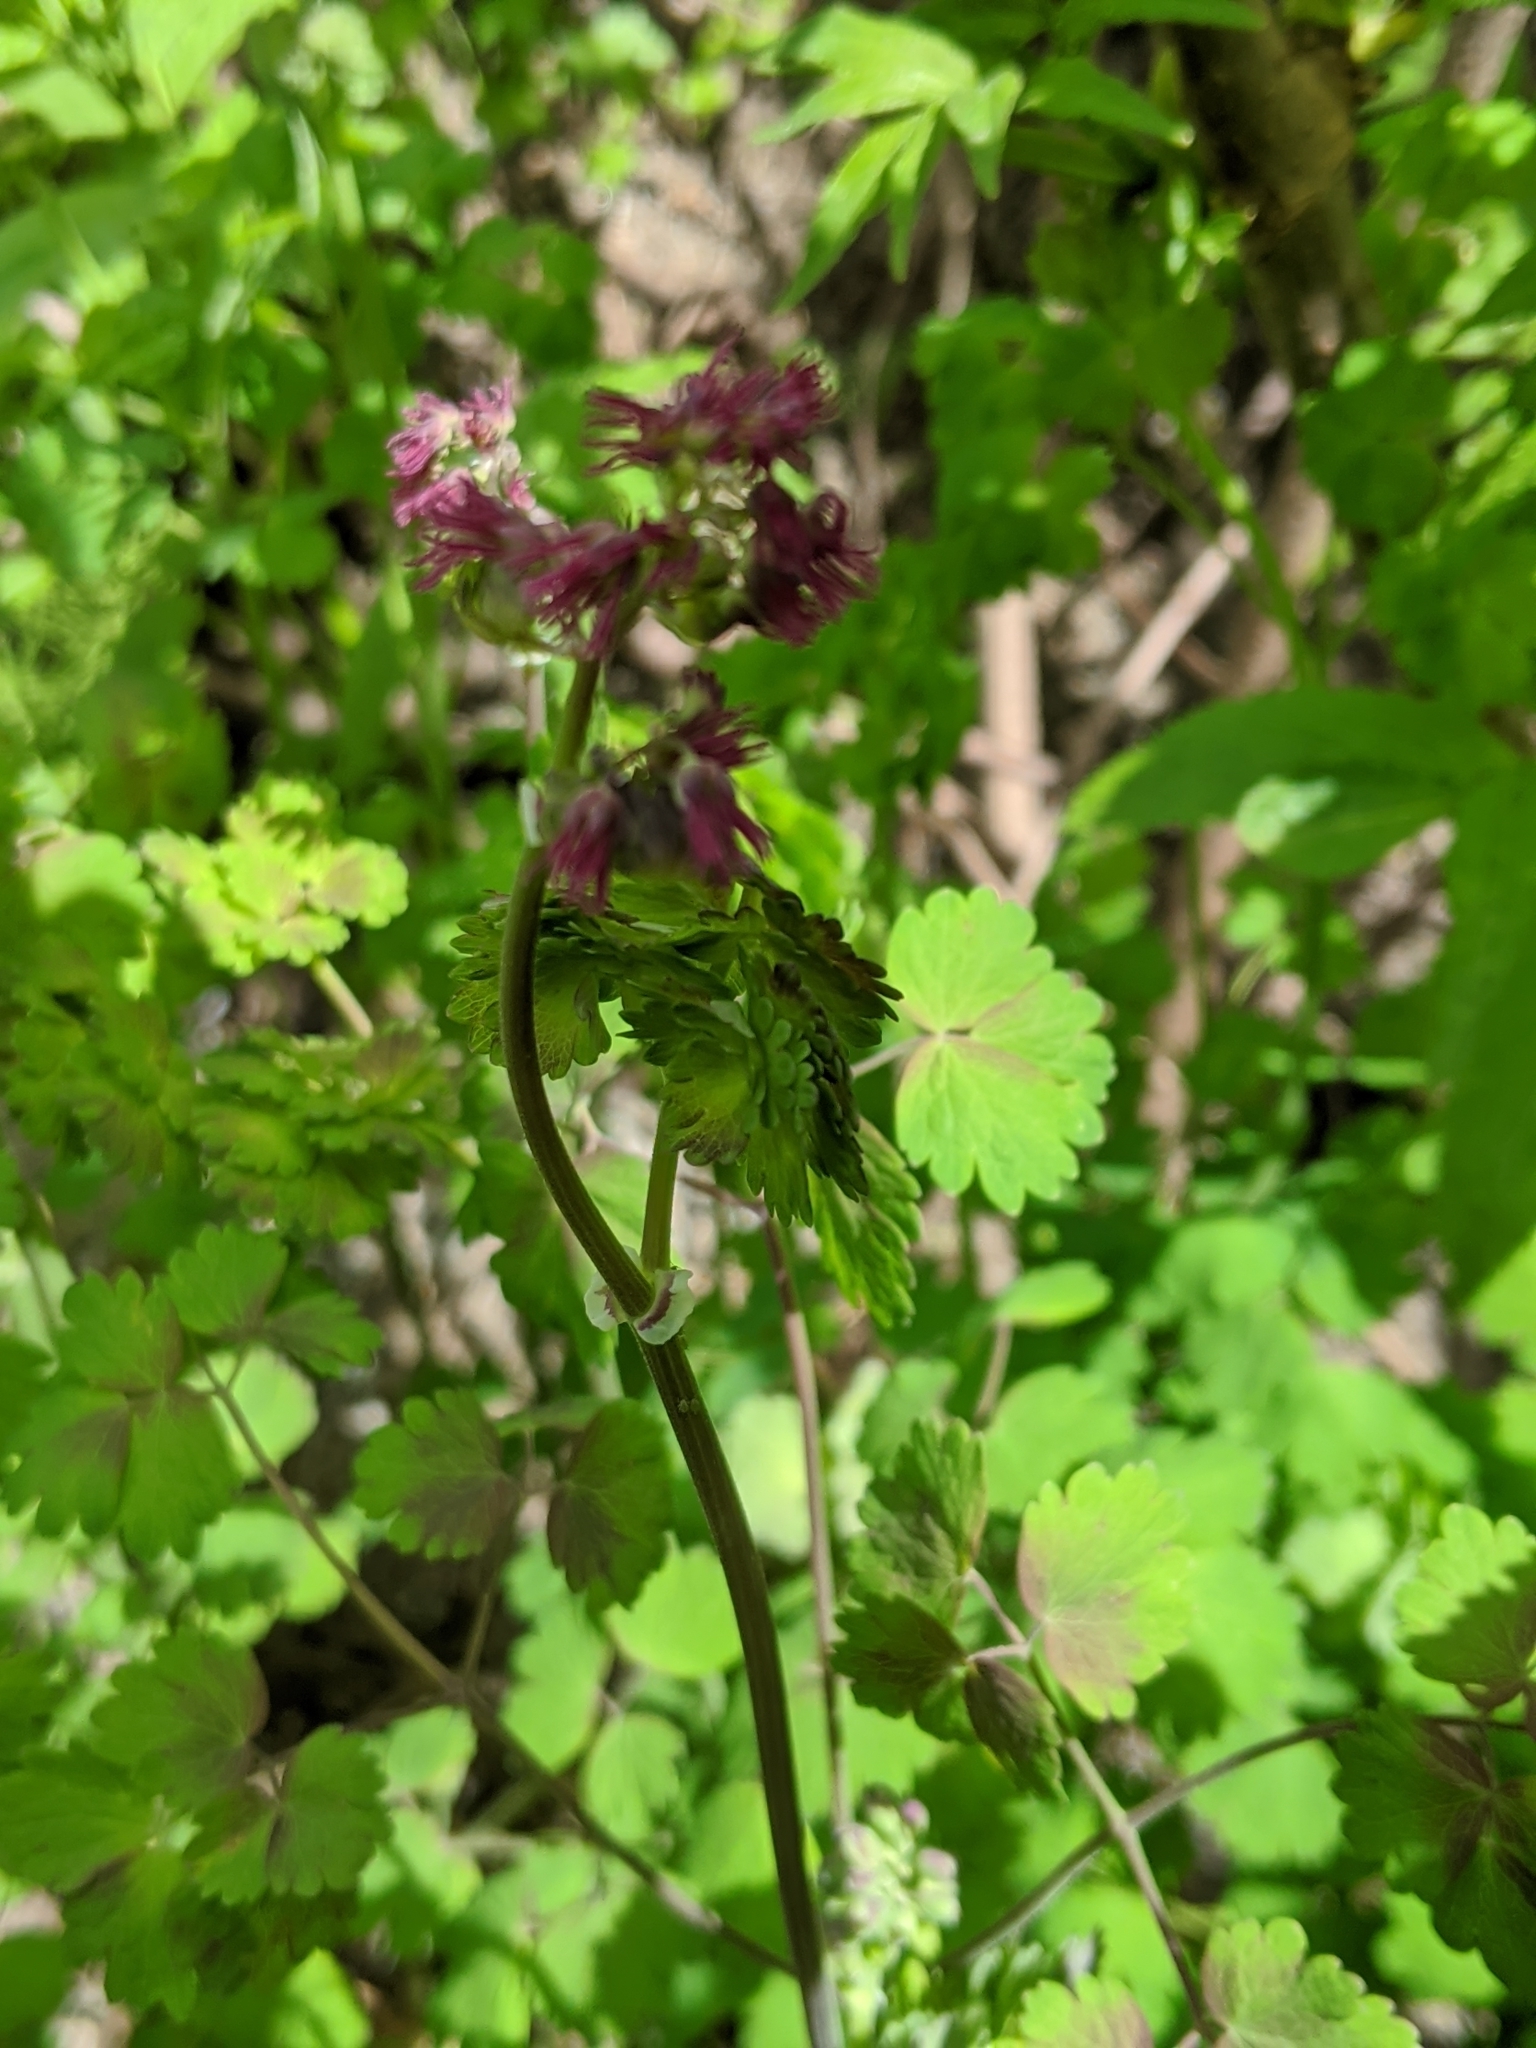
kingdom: Plantae
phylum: Tracheophyta
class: Magnoliopsida
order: Ranunculales
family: Ranunculaceae
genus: Thalictrum
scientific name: Thalictrum occidentale
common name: Western meadow-rue
